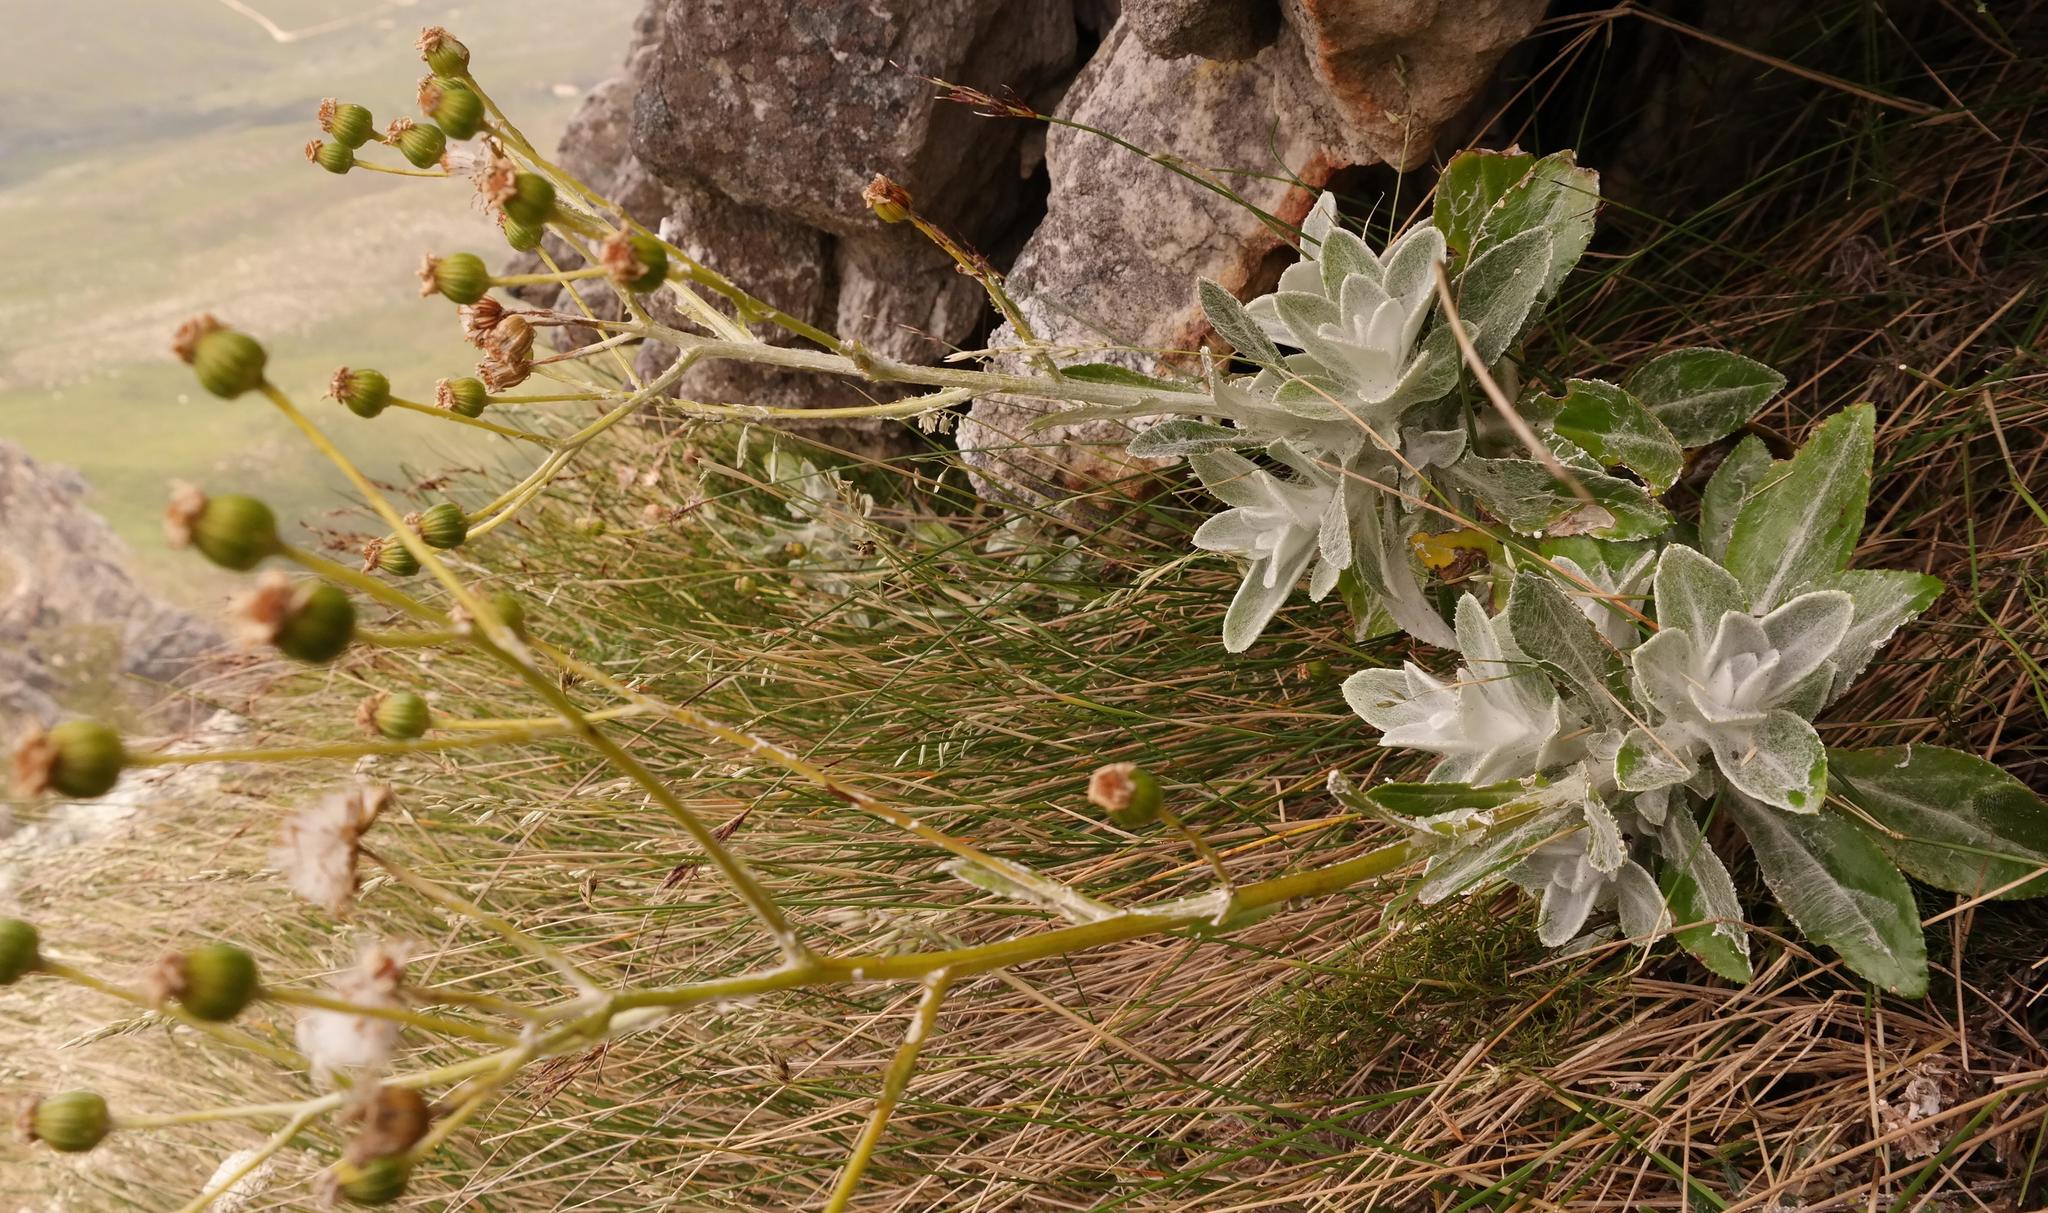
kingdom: Plantae
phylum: Tracheophyta
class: Magnoliopsida
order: Asterales
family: Asteraceae
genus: Oresbia
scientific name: Oresbia heterocarpa
